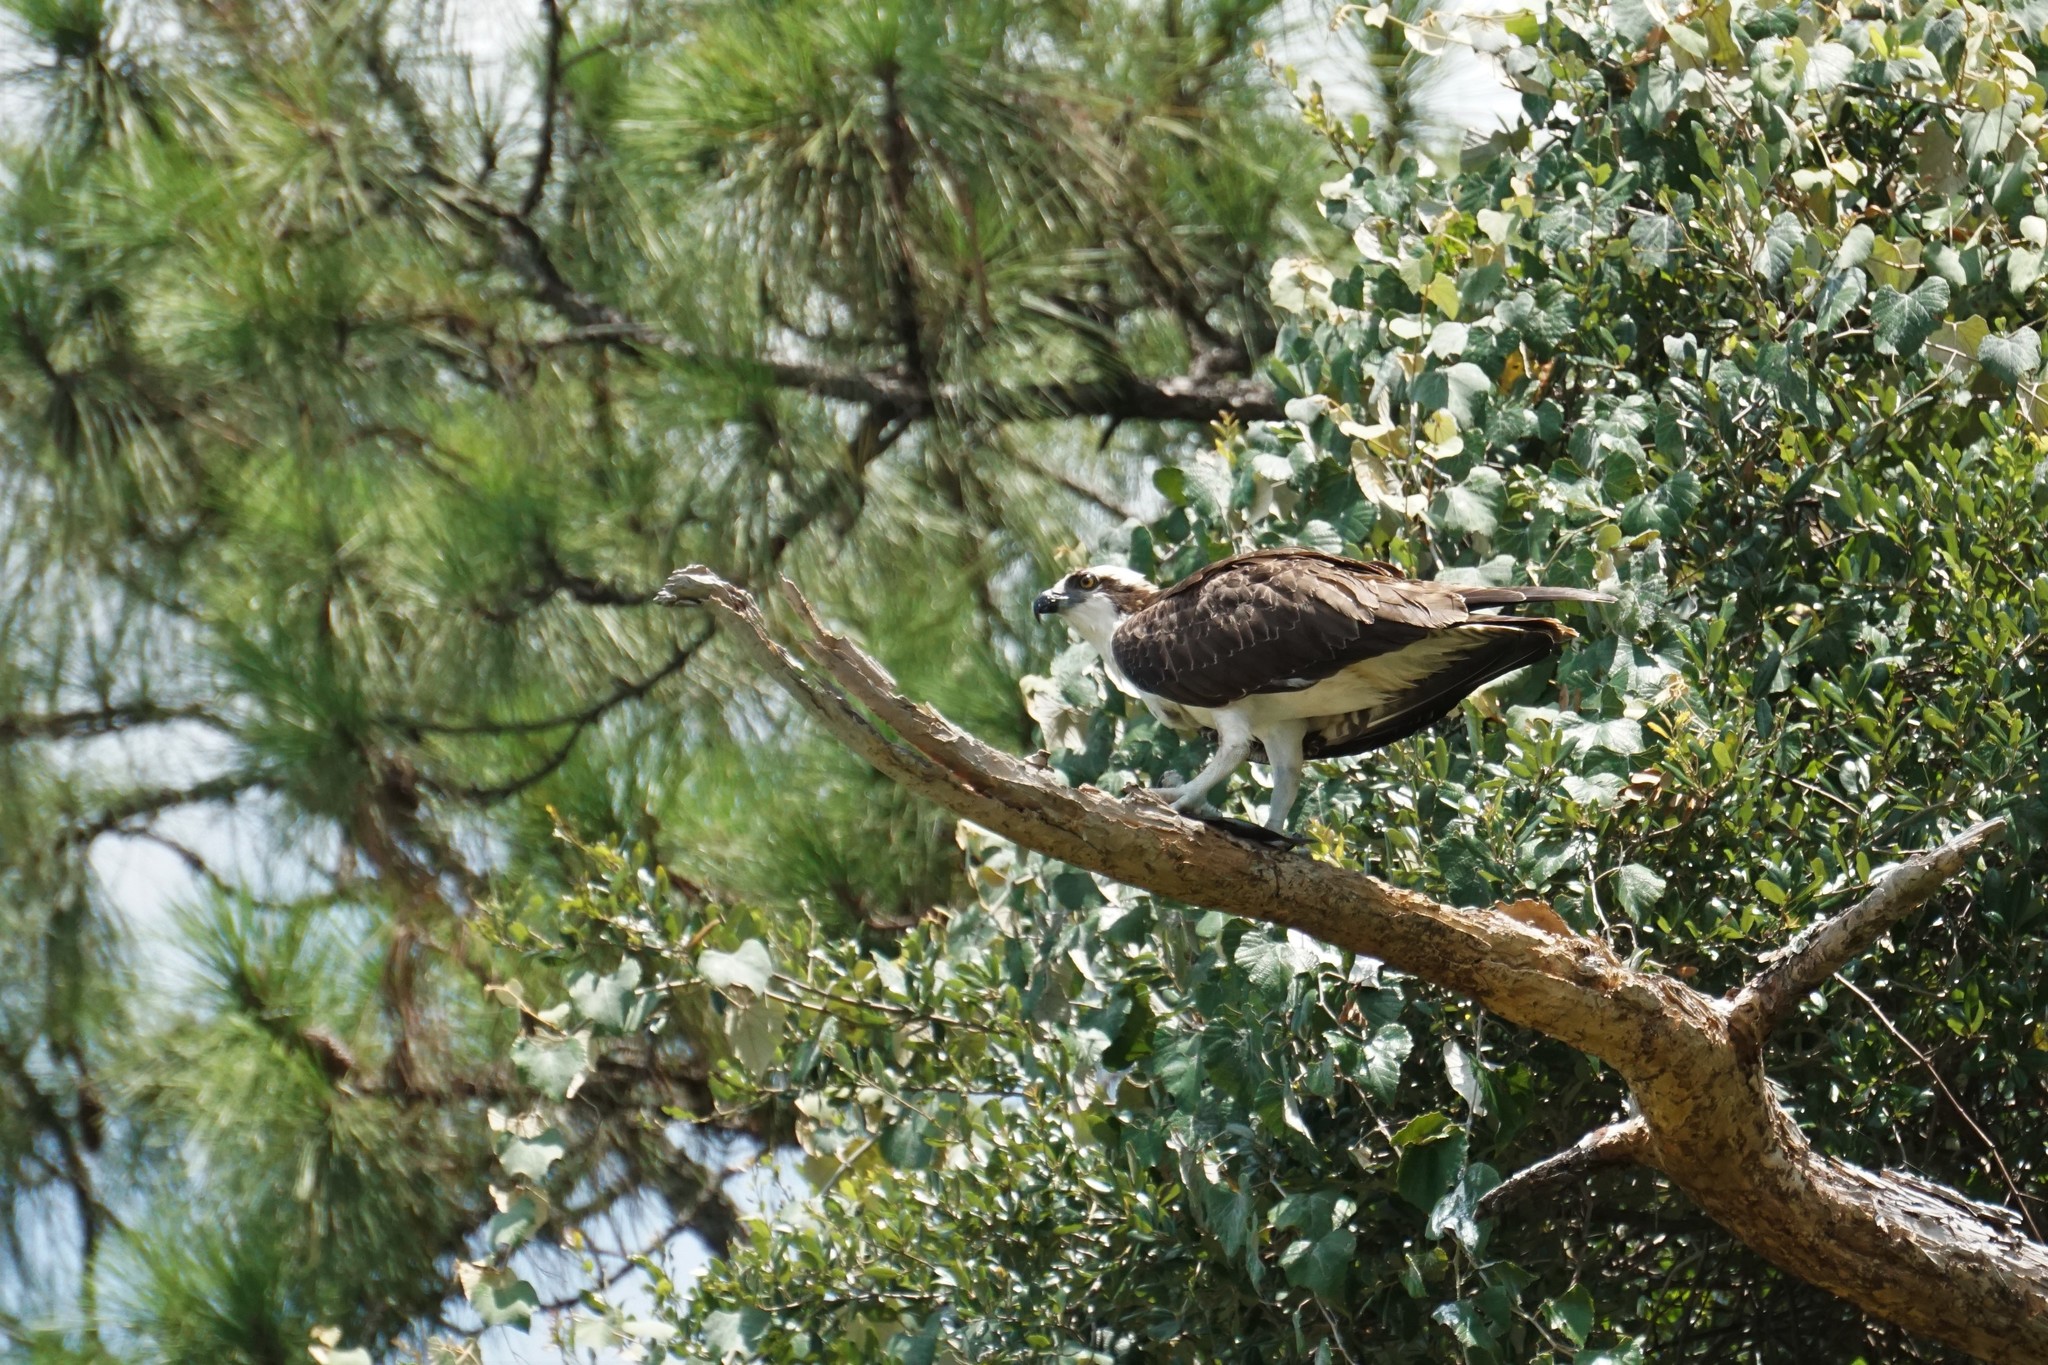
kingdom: Animalia
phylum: Chordata
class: Aves
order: Accipitriformes
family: Pandionidae
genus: Pandion
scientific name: Pandion haliaetus
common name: Osprey
